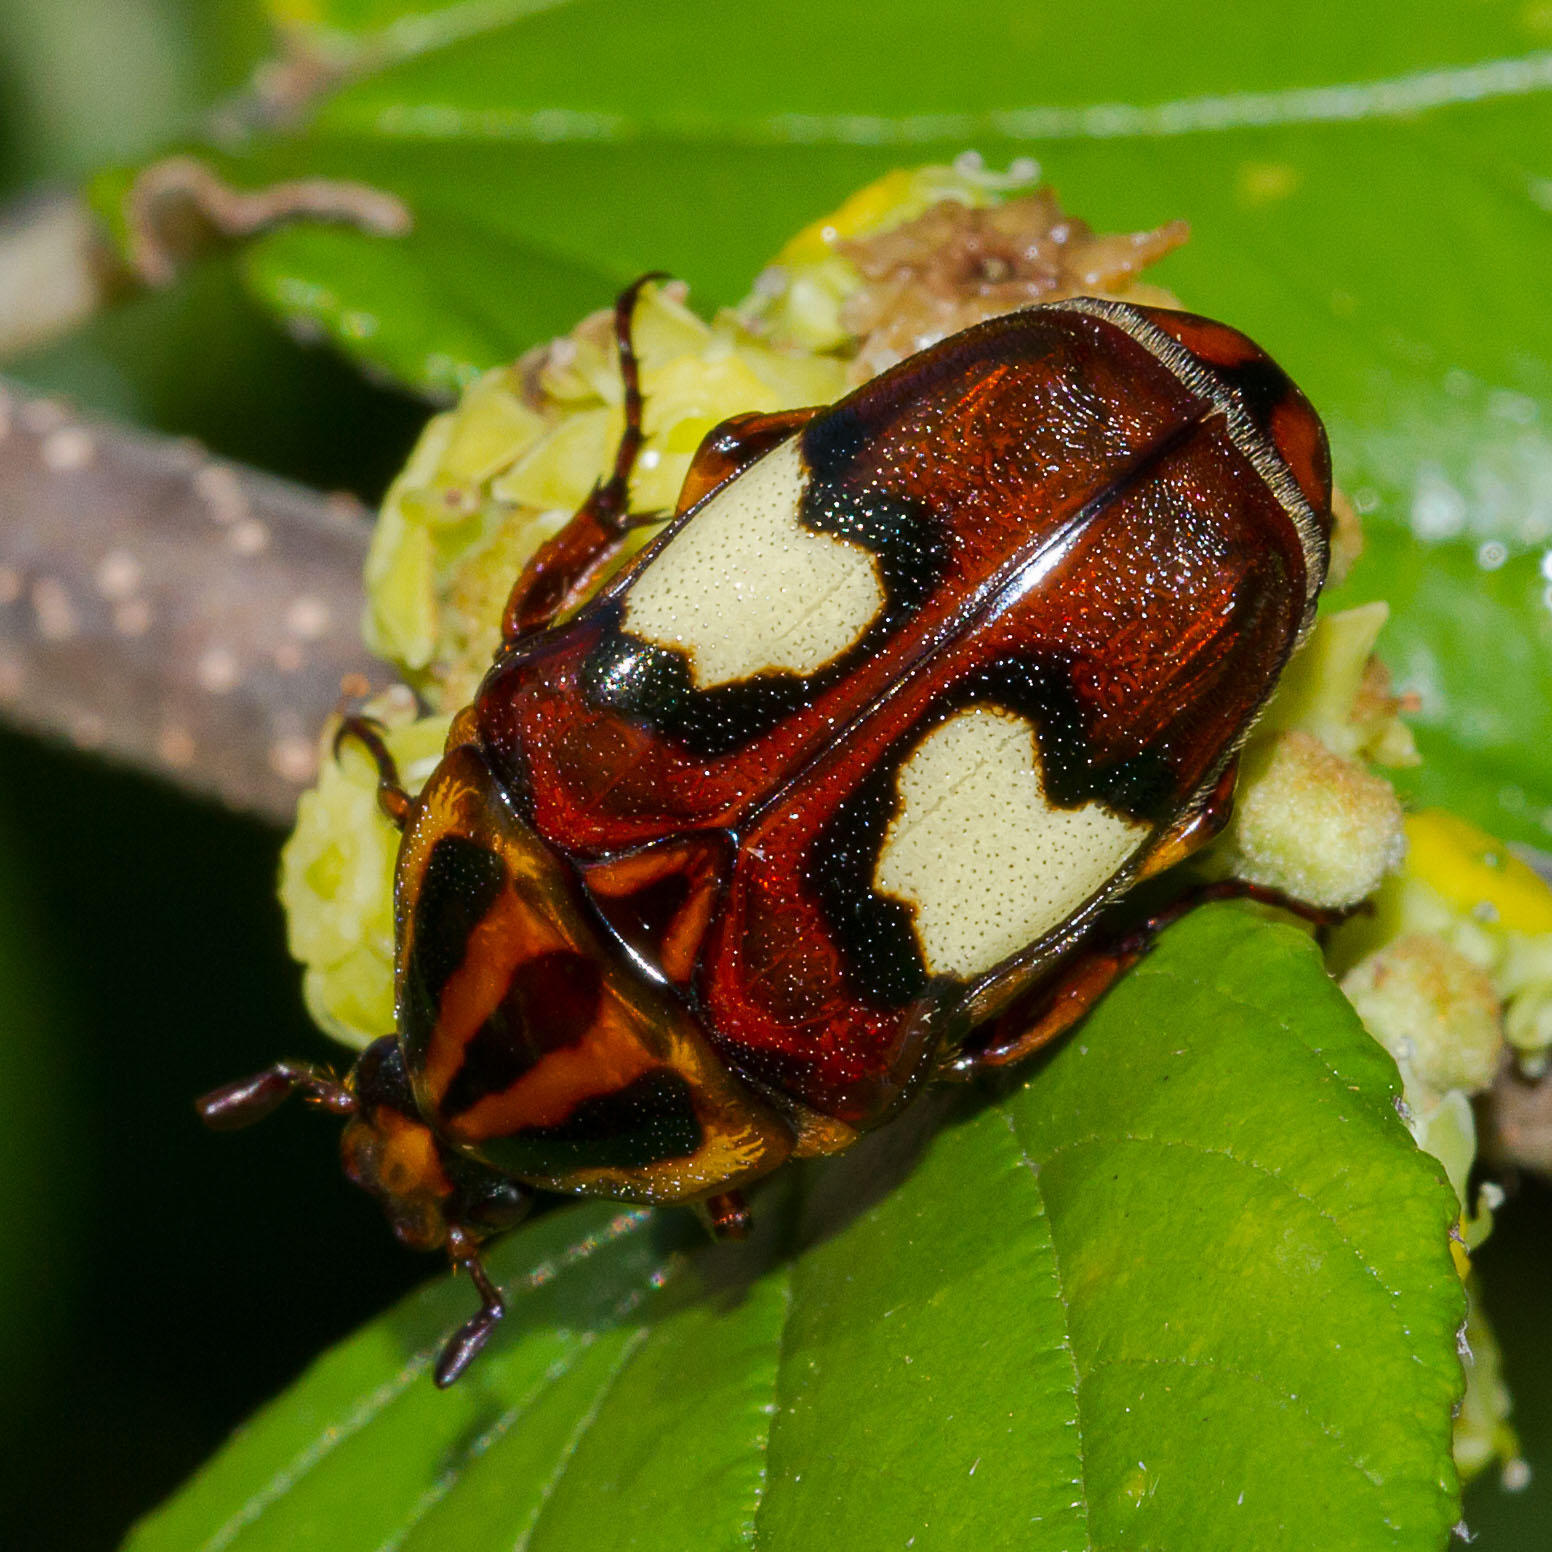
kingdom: Animalia
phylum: Arthropoda
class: Insecta
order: Coleoptera
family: Scarabaeidae
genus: Pedinorrhina
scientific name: Pedinorrhina
